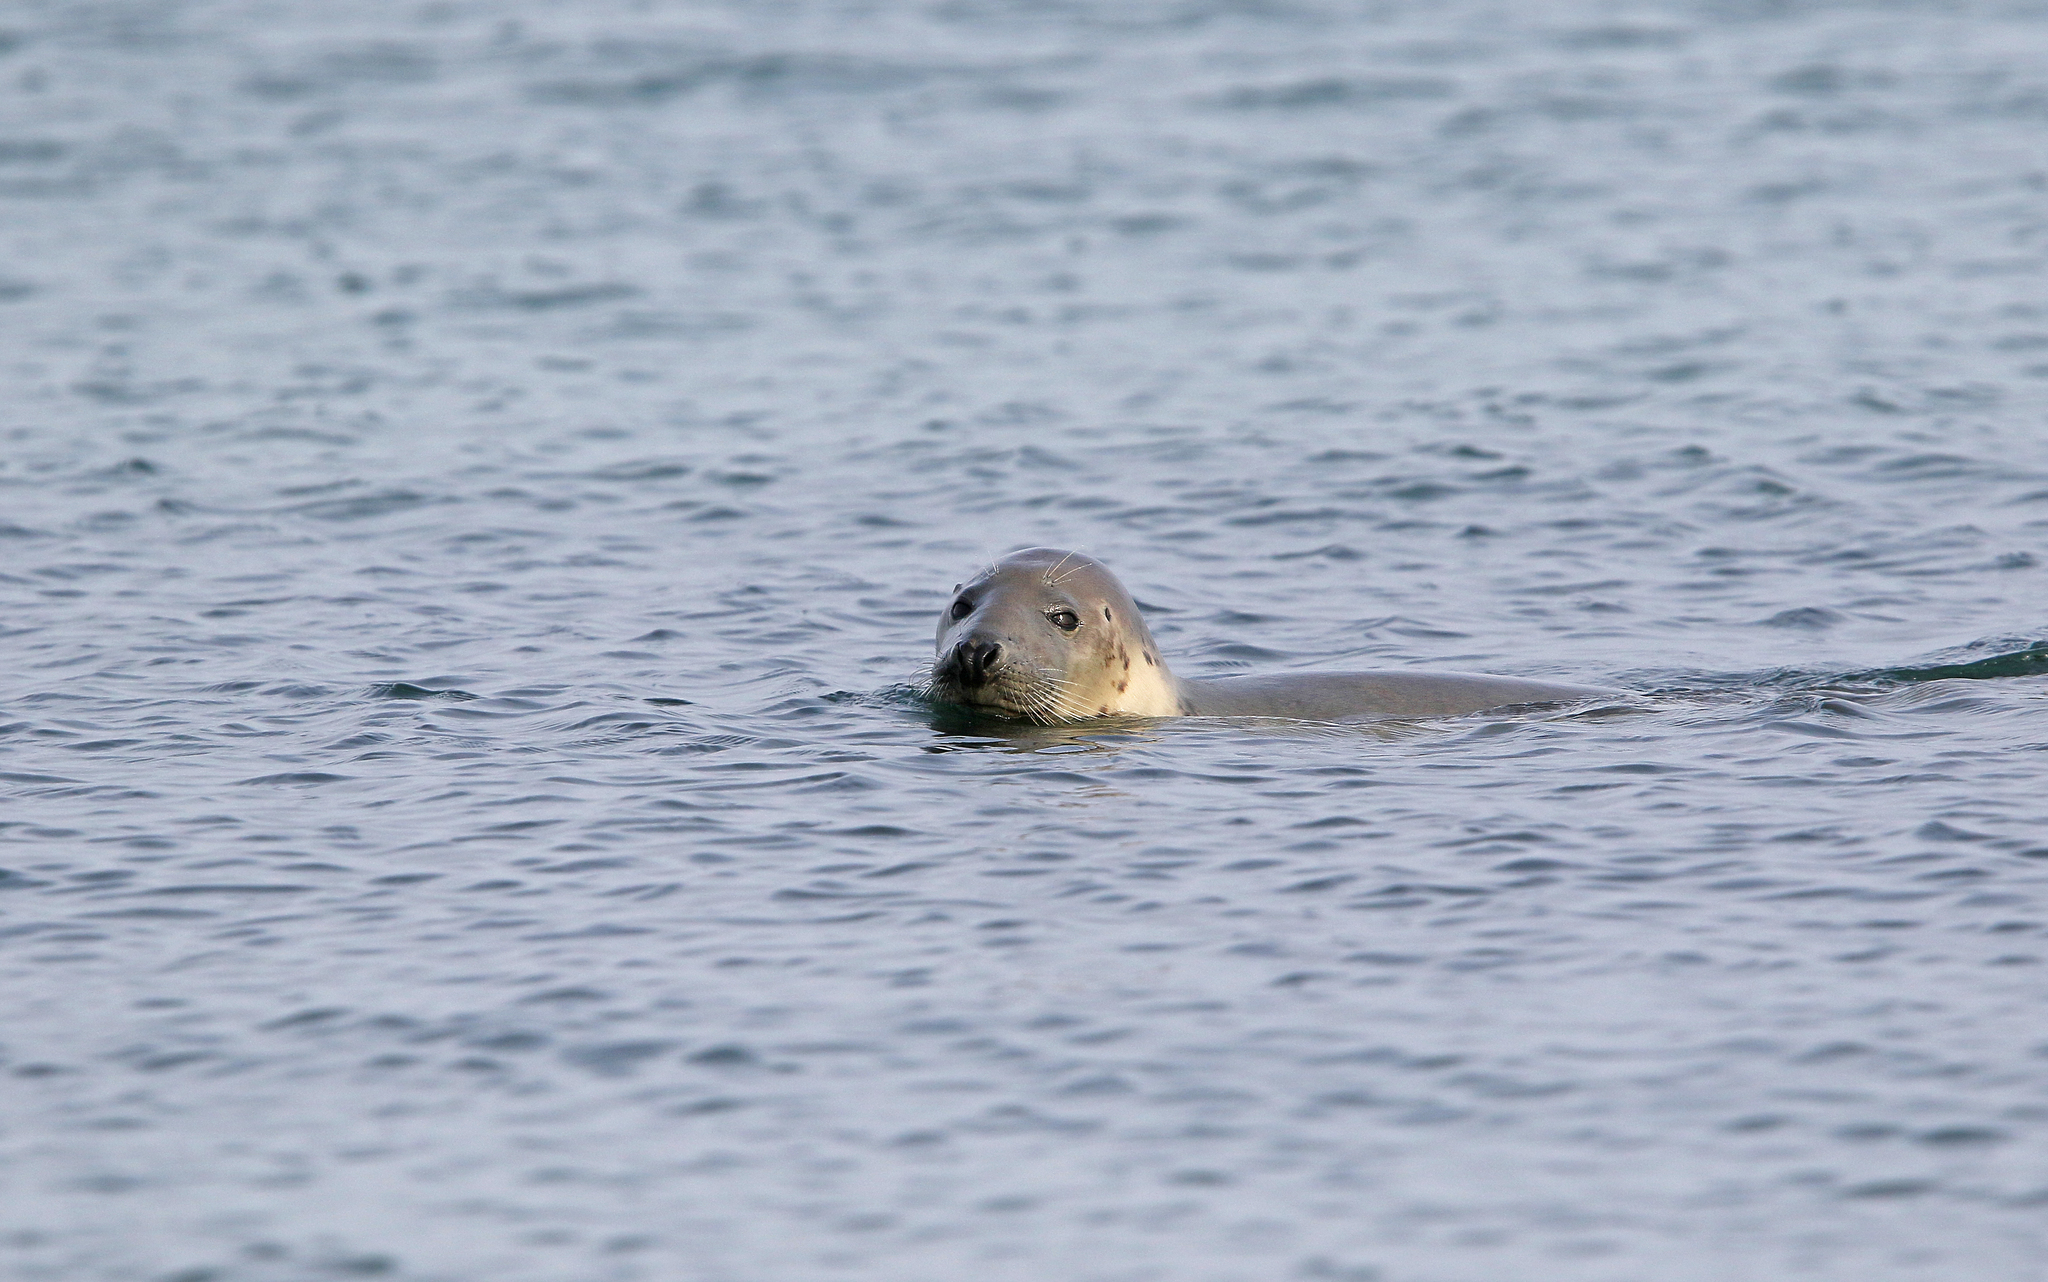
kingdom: Animalia
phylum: Chordata
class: Mammalia
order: Carnivora
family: Phocidae
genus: Halichoerus
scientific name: Halichoerus grypus
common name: Grey seal
